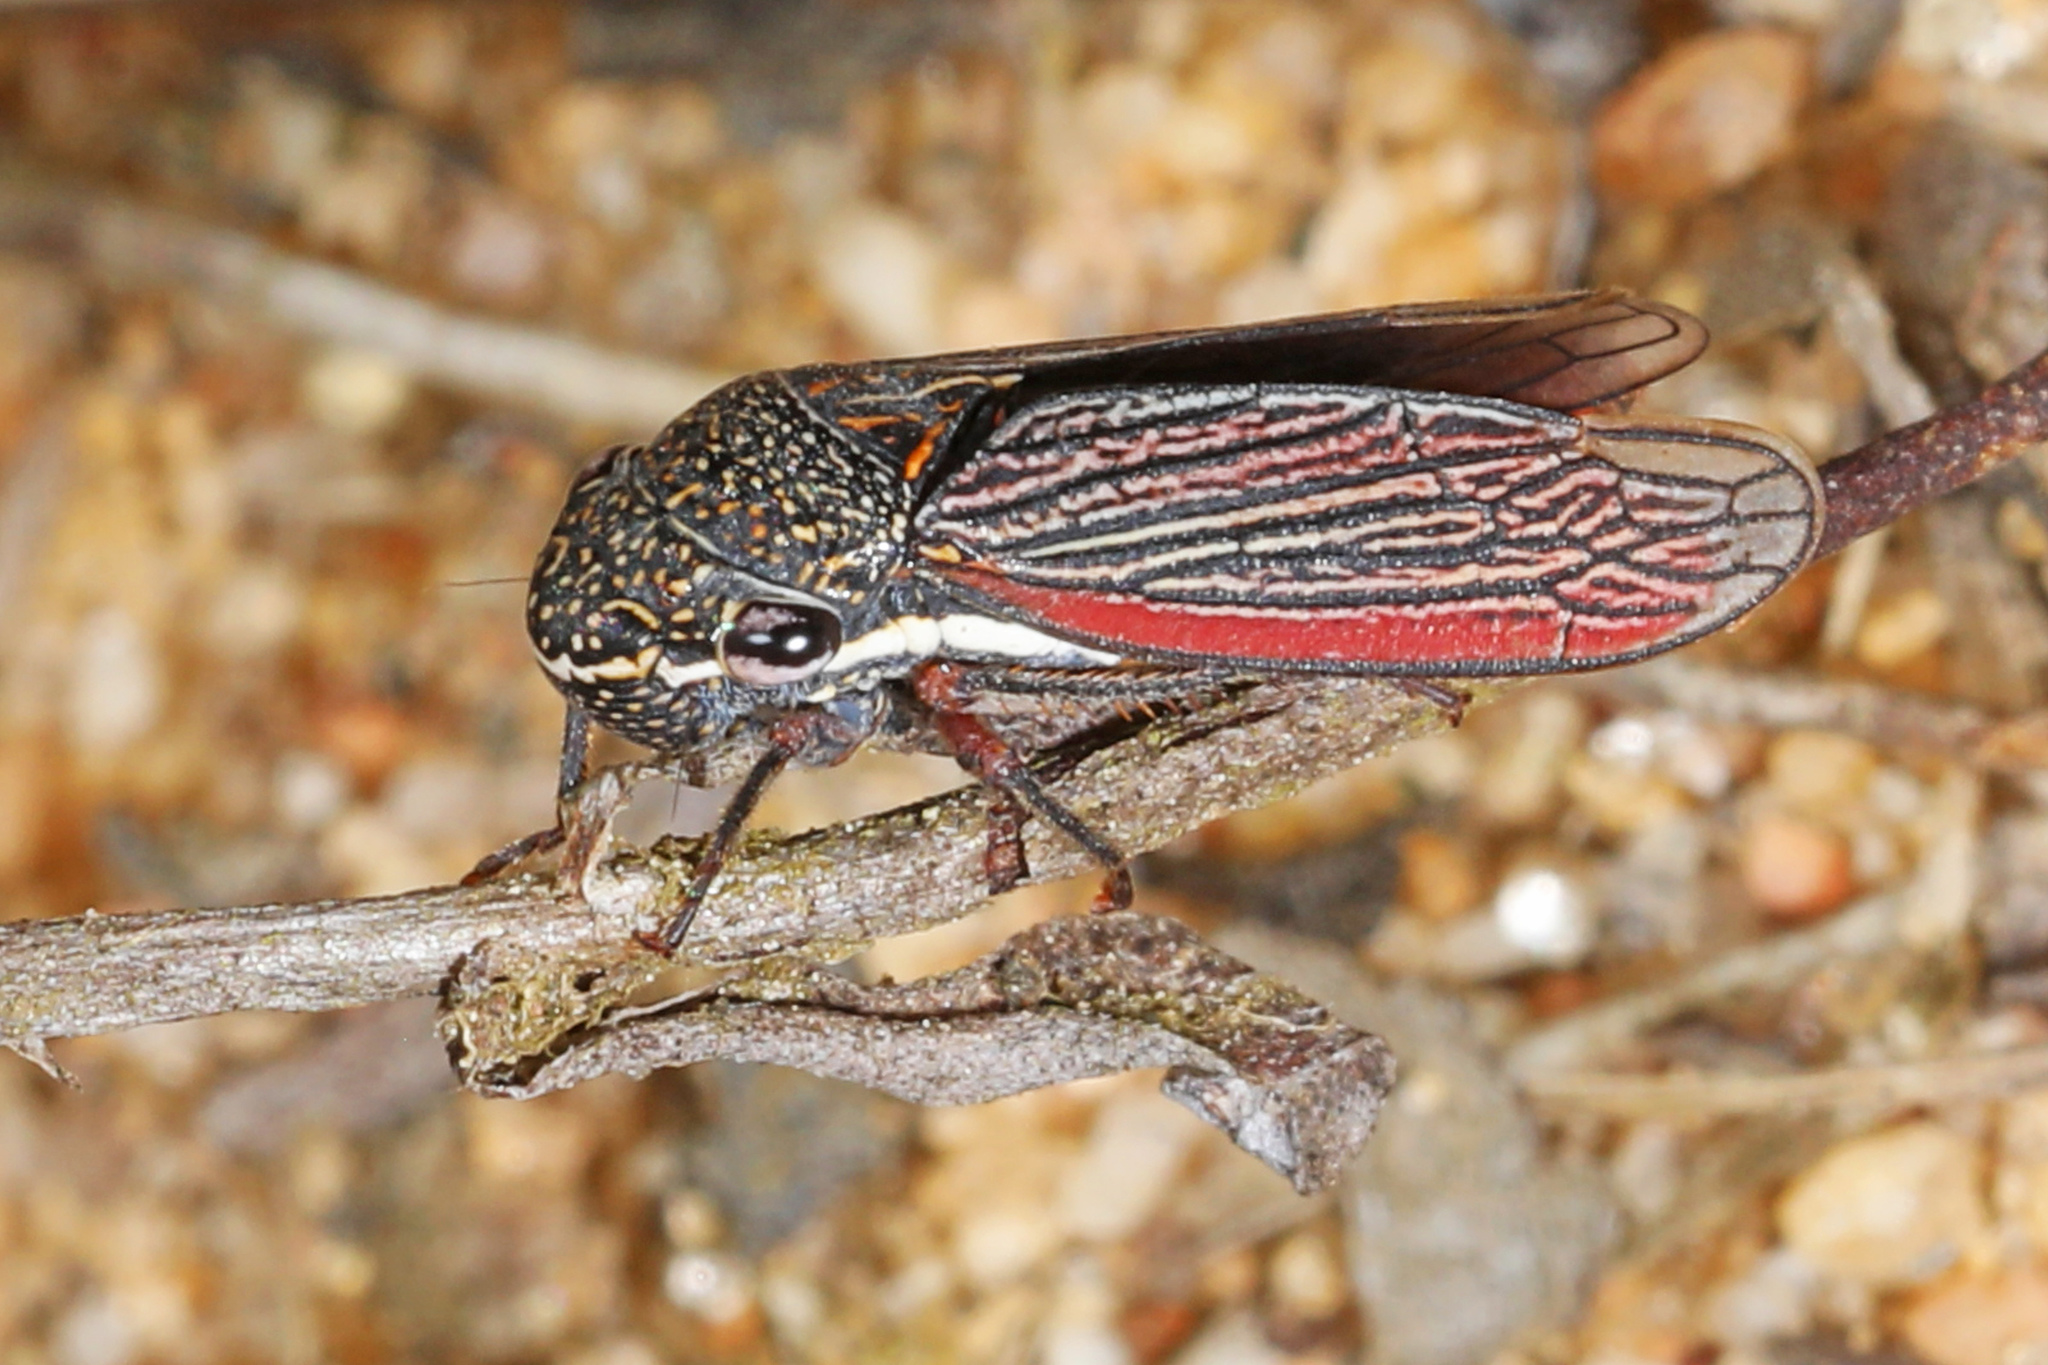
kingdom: Animalia
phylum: Arthropoda
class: Insecta
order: Hemiptera
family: Cicadellidae
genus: Cuerna
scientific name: Cuerna costalis
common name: Lateral-lined sharpshooter
